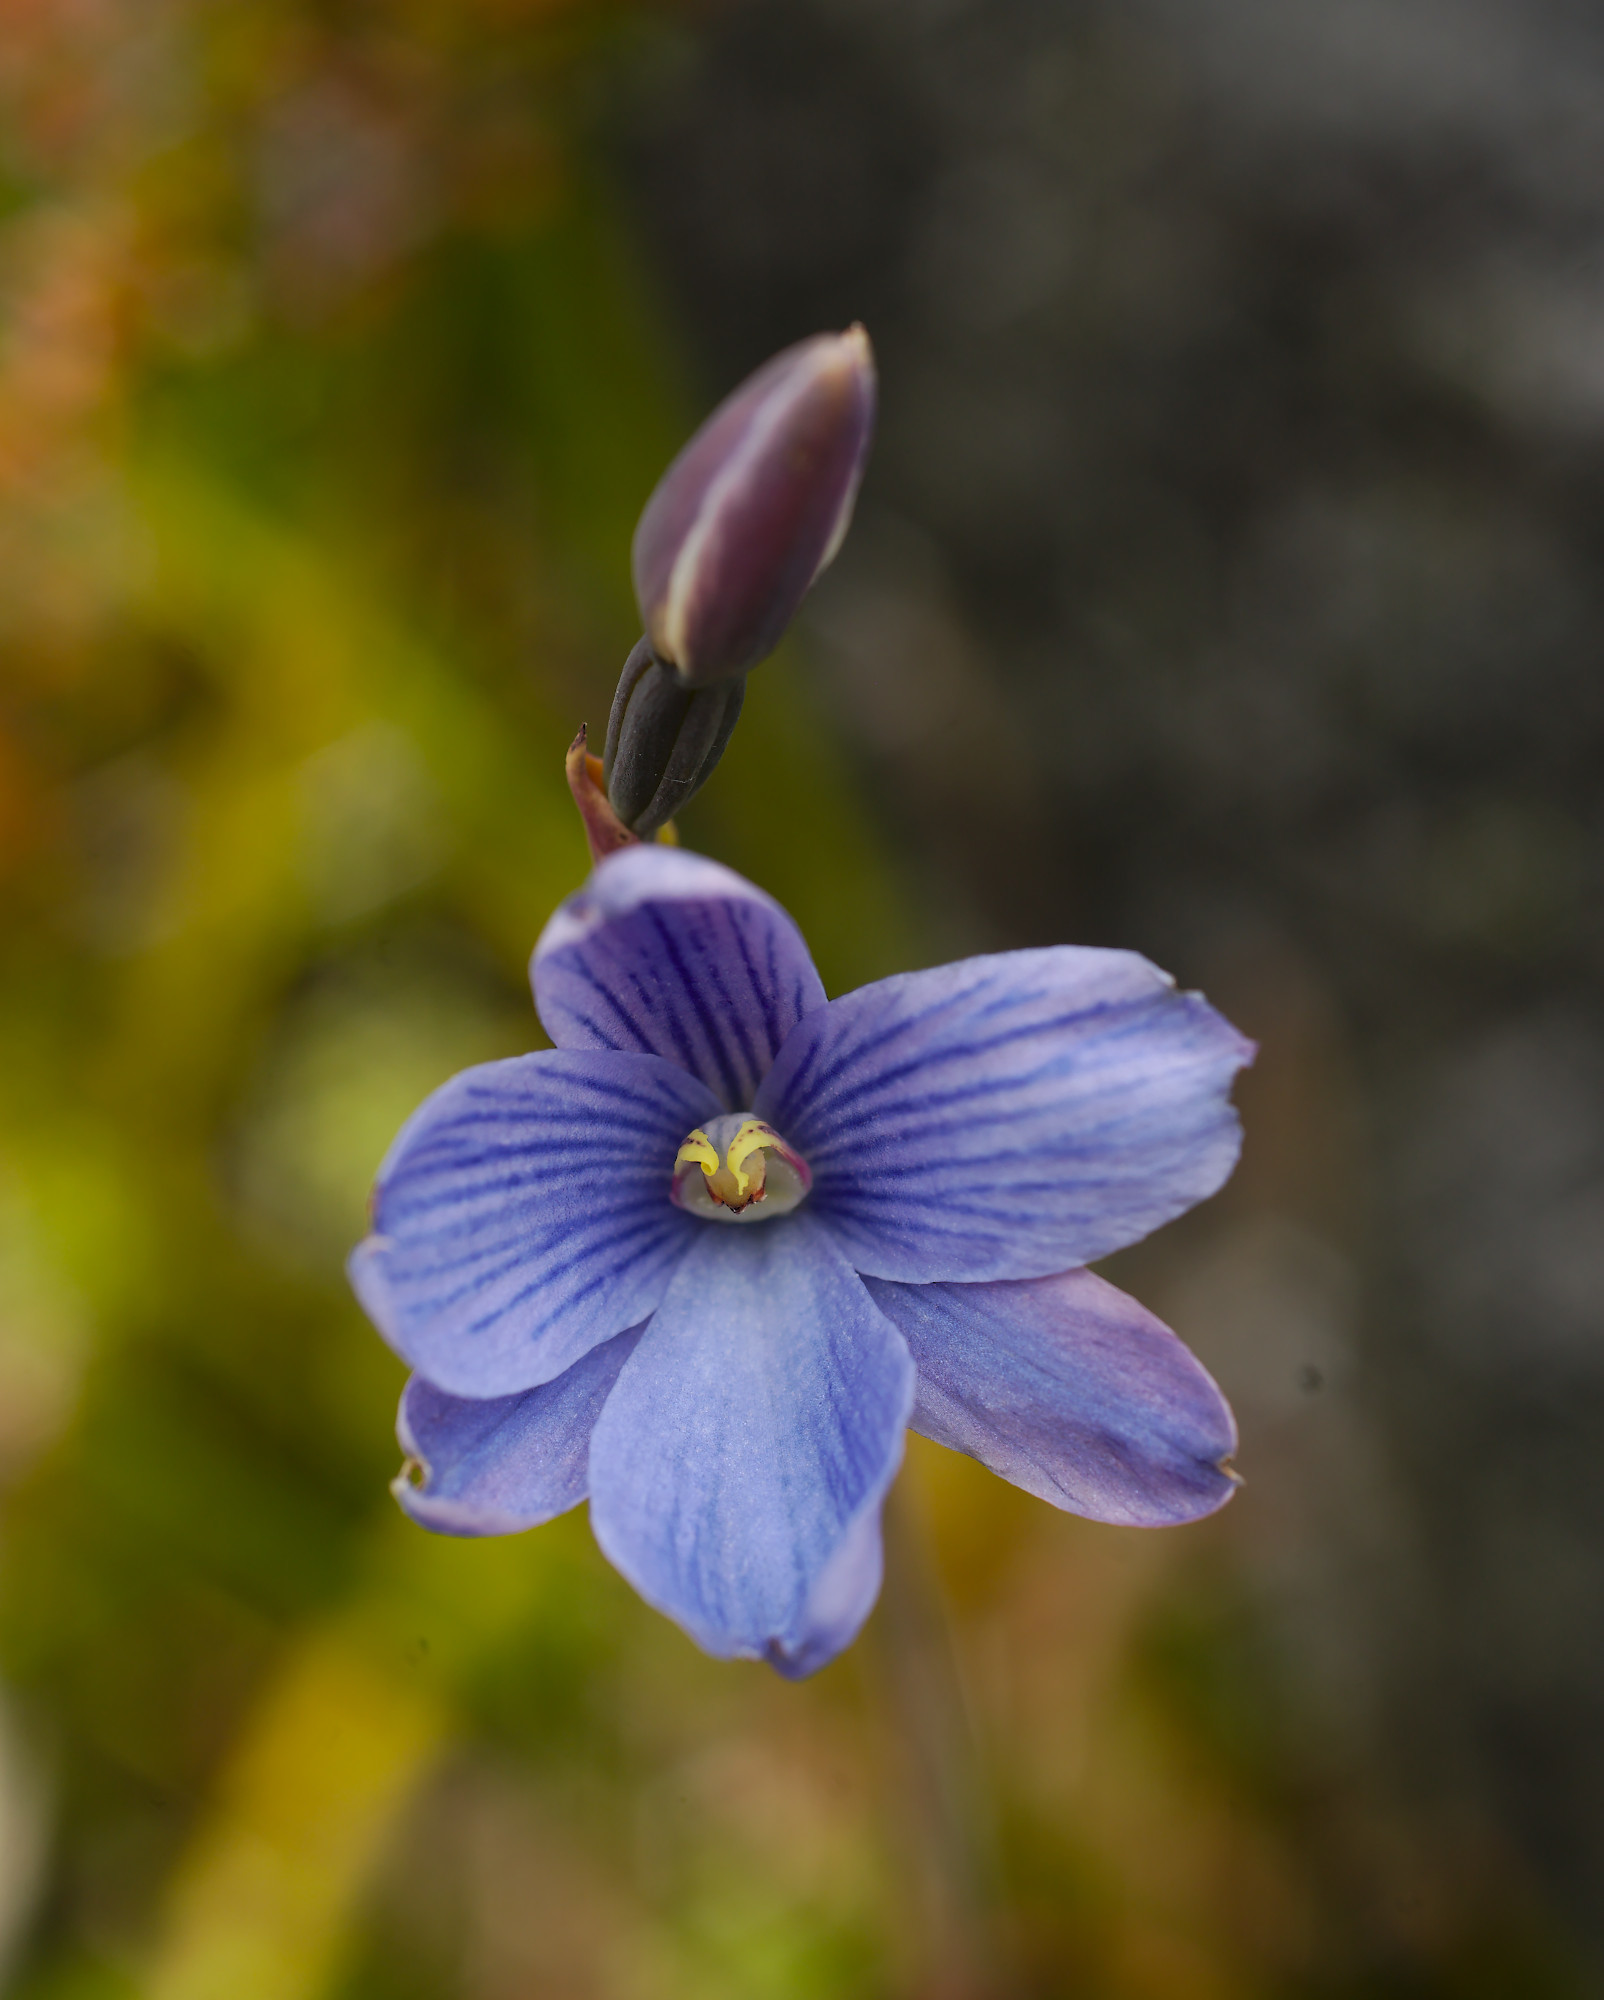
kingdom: Plantae
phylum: Tracheophyta
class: Liliopsida
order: Asparagales
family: Orchidaceae
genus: Thelymitra
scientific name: Thelymitra cyanea
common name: Blue sun-orchid
